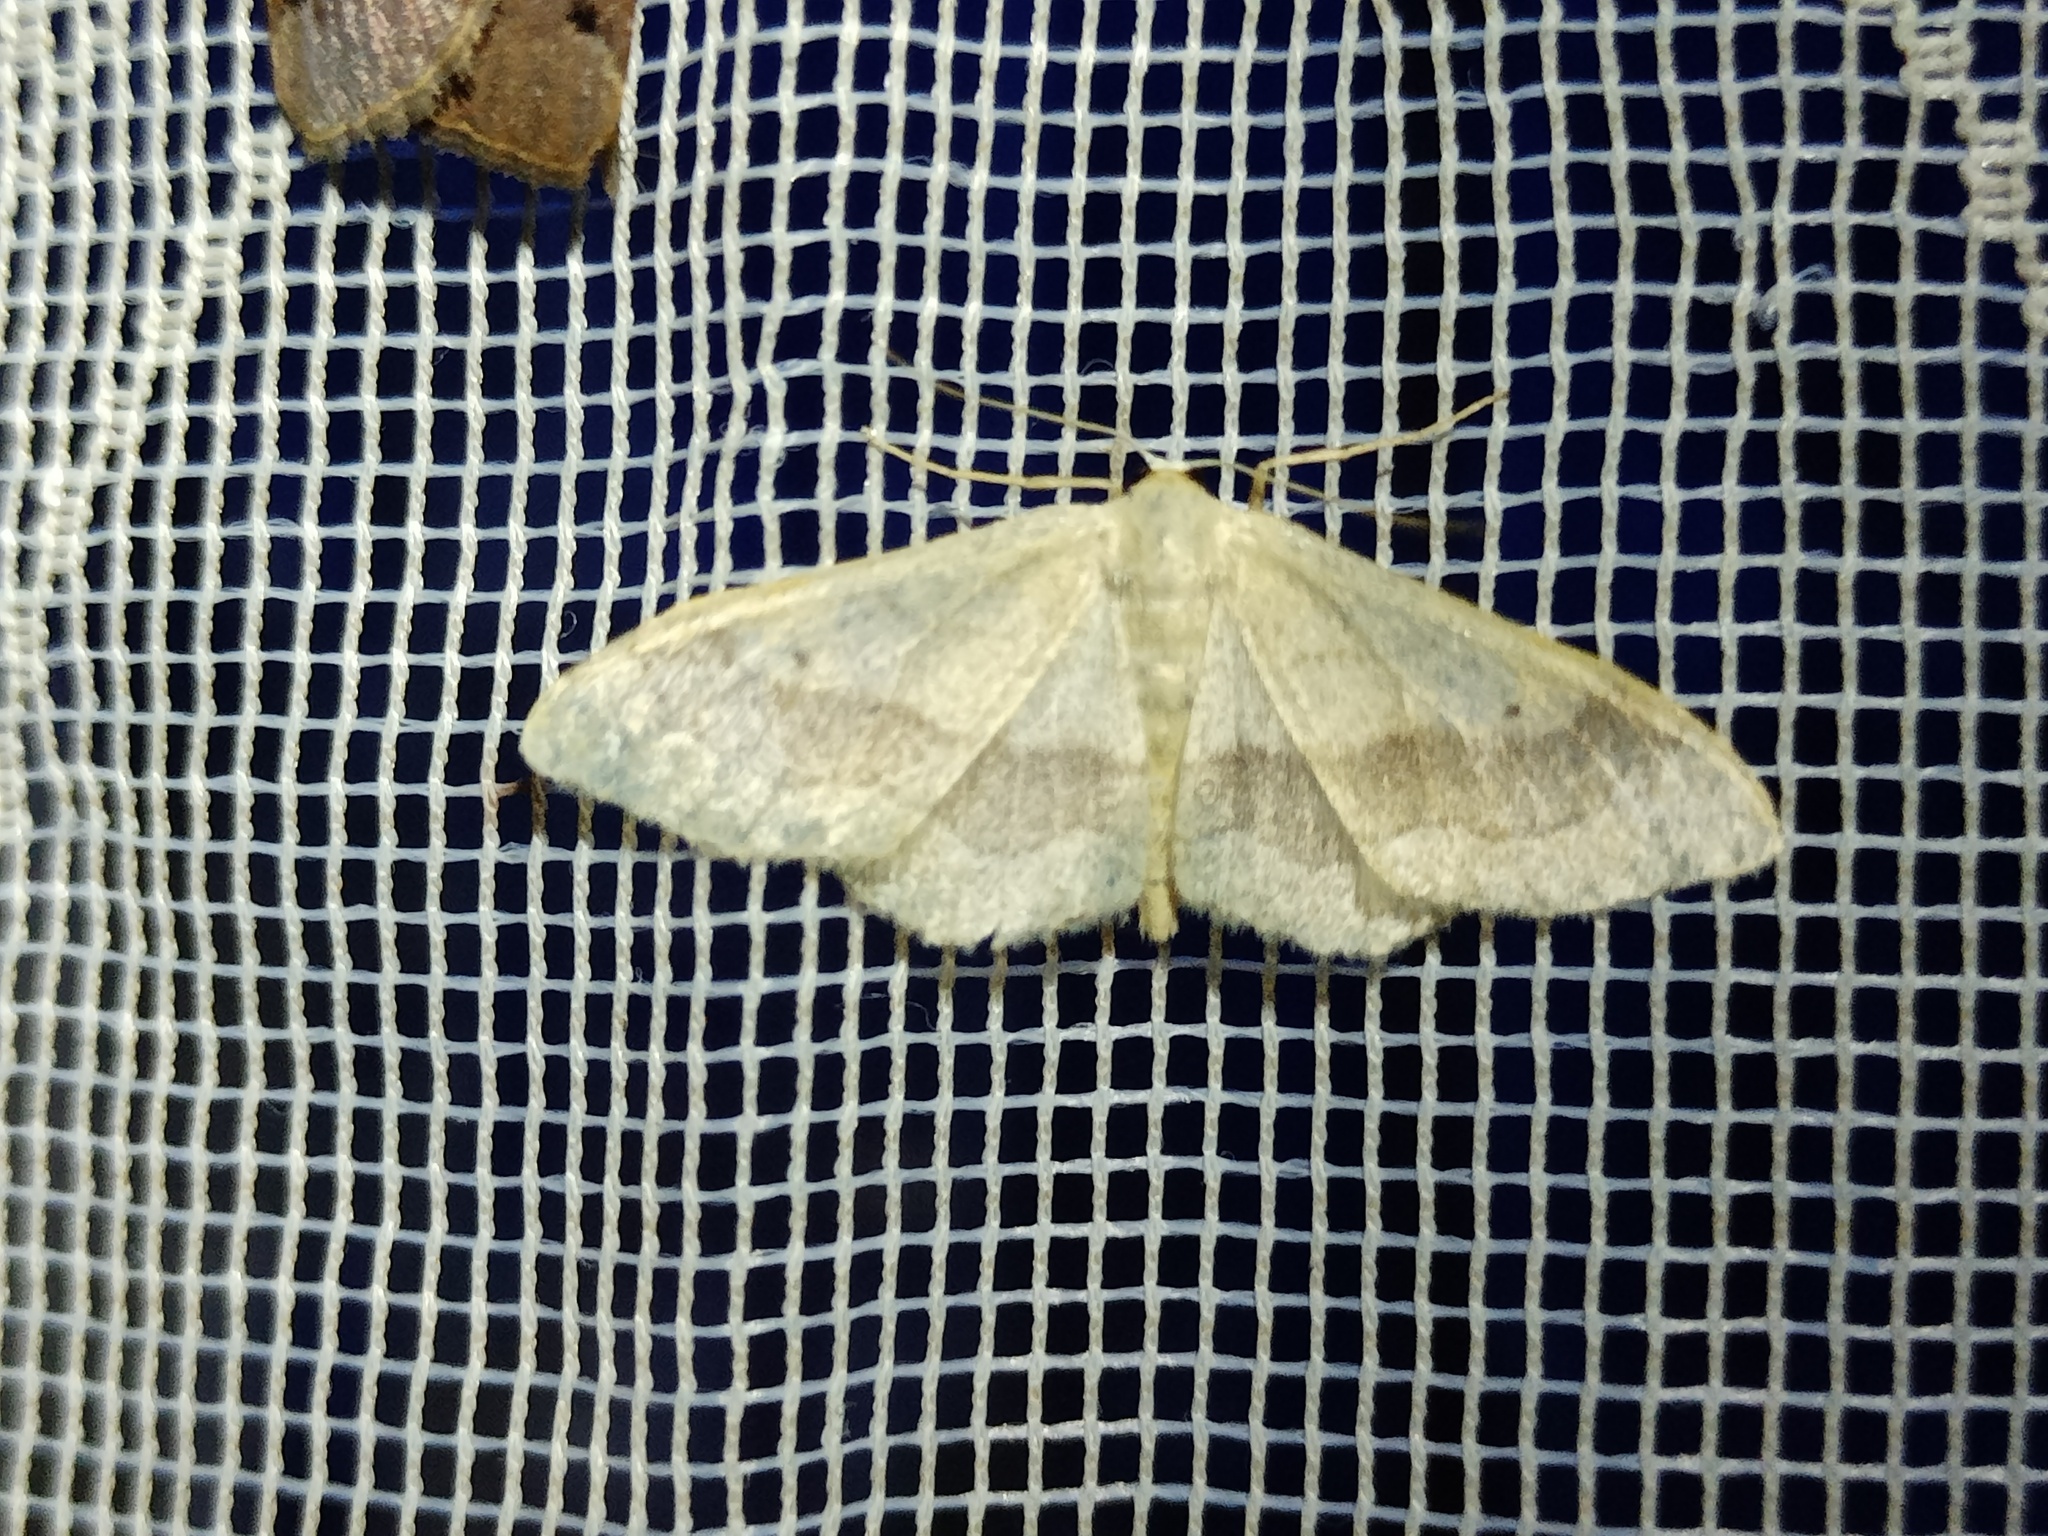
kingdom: Animalia
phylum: Arthropoda
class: Insecta
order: Lepidoptera
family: Geometridae
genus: Idaea
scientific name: Idaea aversata
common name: Riband wave
